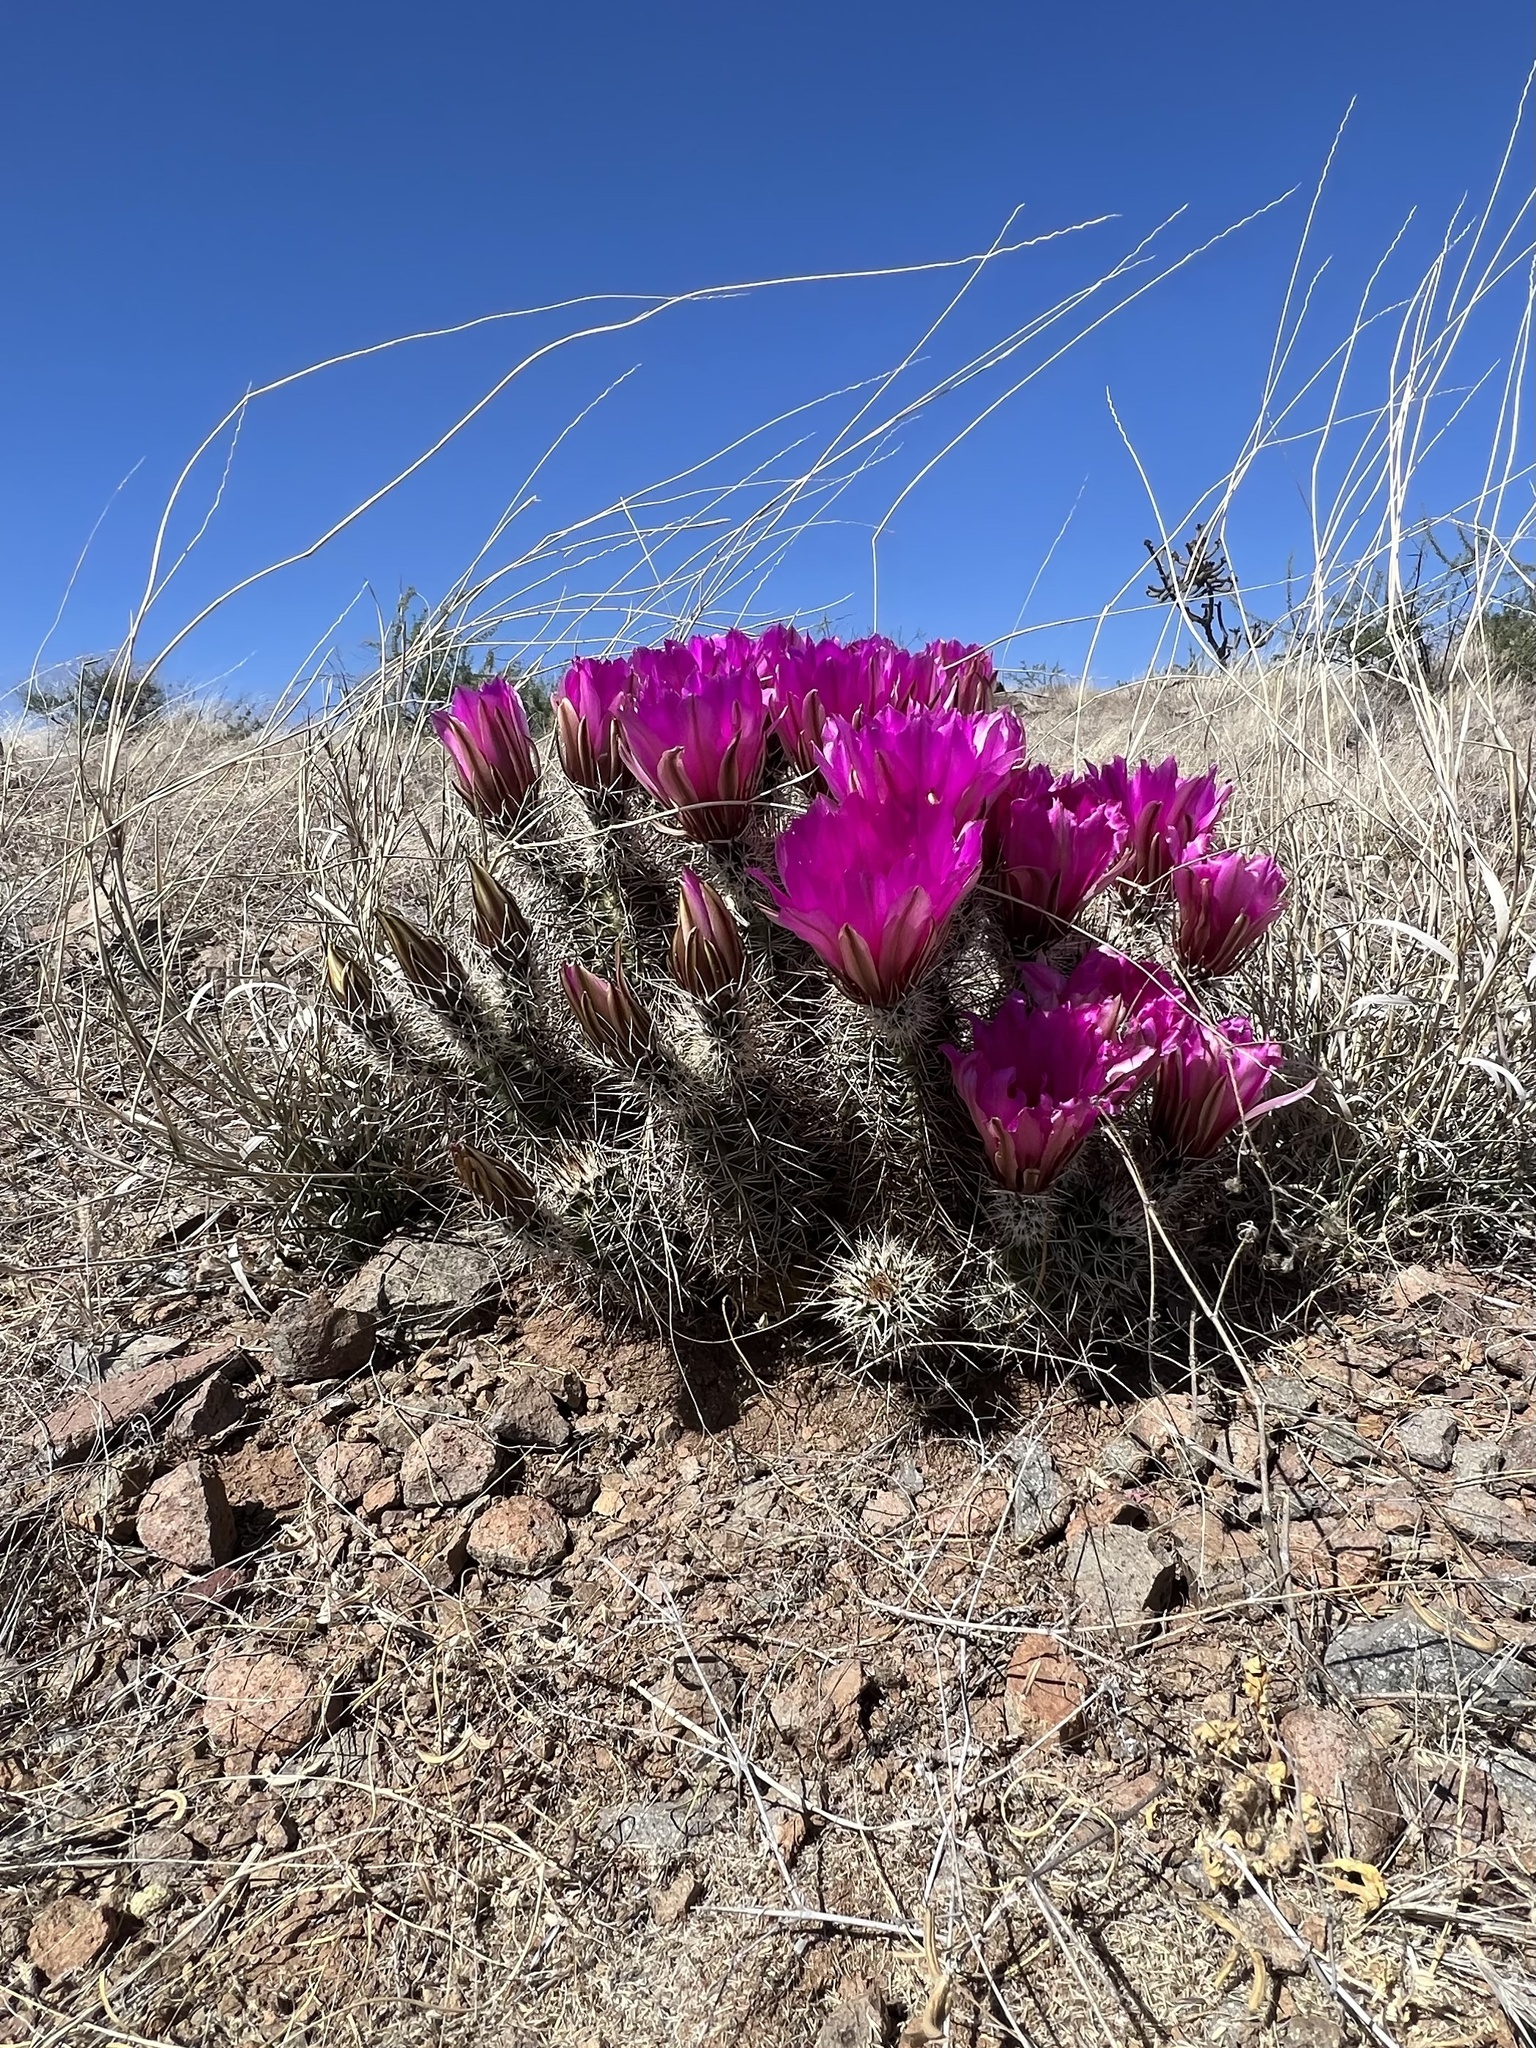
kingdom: Plantae
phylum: Tracheophyta
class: Magnoliopsida
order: Caryophyllales
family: Cactaceae
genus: Echinocereus
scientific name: Echinocereus fendleri
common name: Fendler's hedgehog cactus
